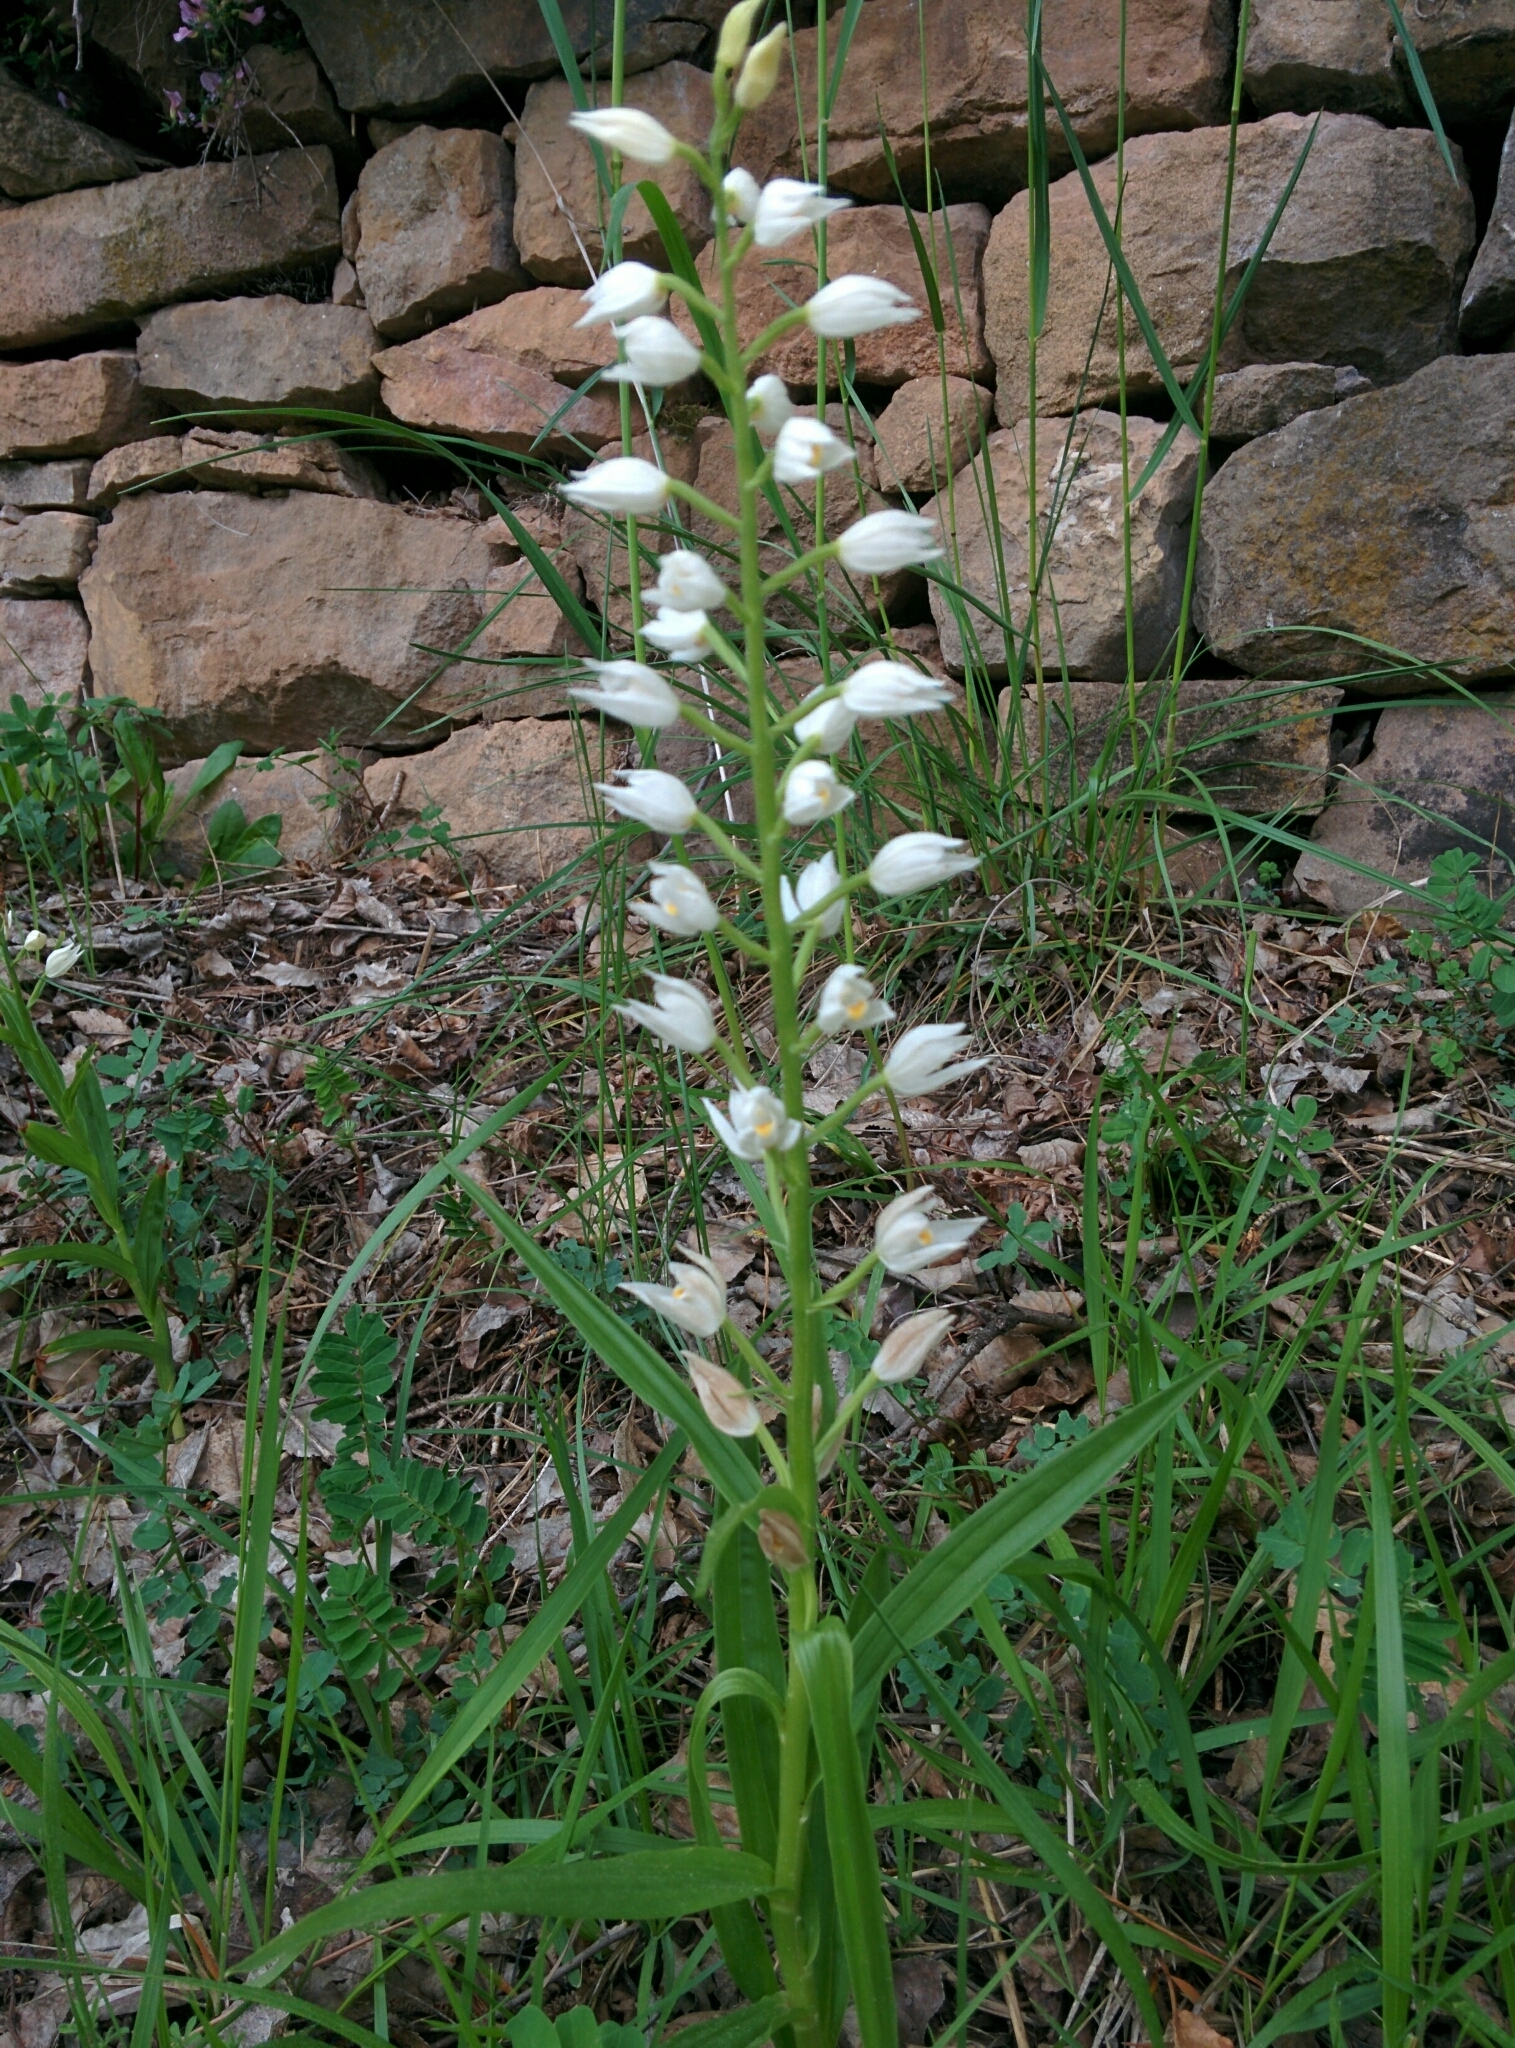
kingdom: Plantae
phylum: Tracheophyta
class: Liliopsida
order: Asparagales
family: Orchidaceae
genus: Cephalanthera
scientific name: Cephalanthera longifolia
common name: Narrow-leaved helleborine
